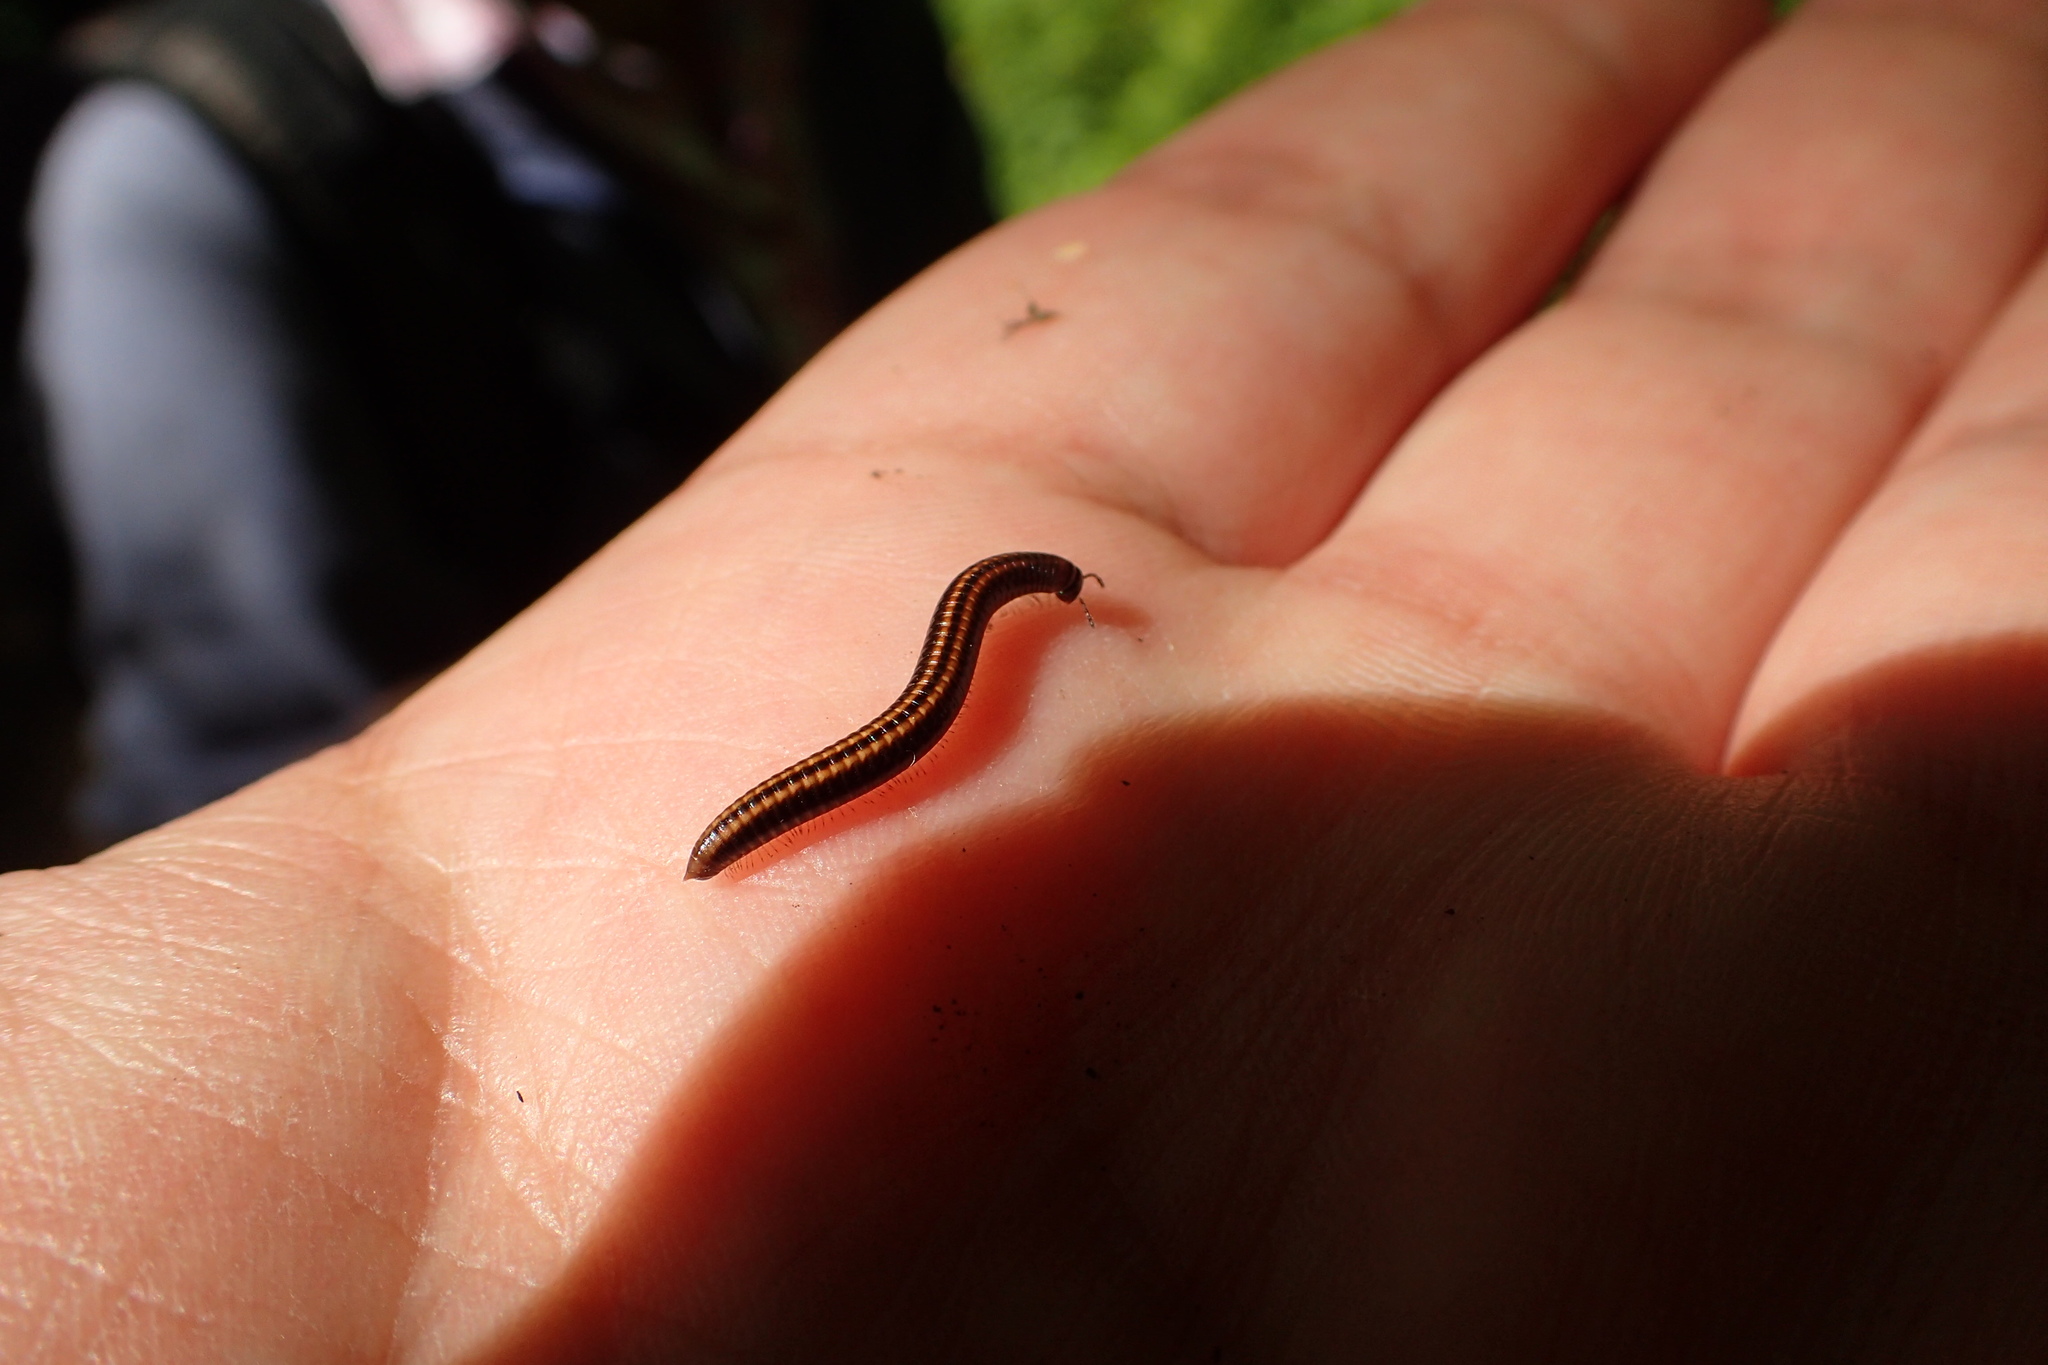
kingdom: Animalia
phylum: Arthropoda
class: Diplopoda
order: Julida
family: Julidae
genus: Ommatoiulus
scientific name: Ommatoiulus sabulosus
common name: Striped millipede
